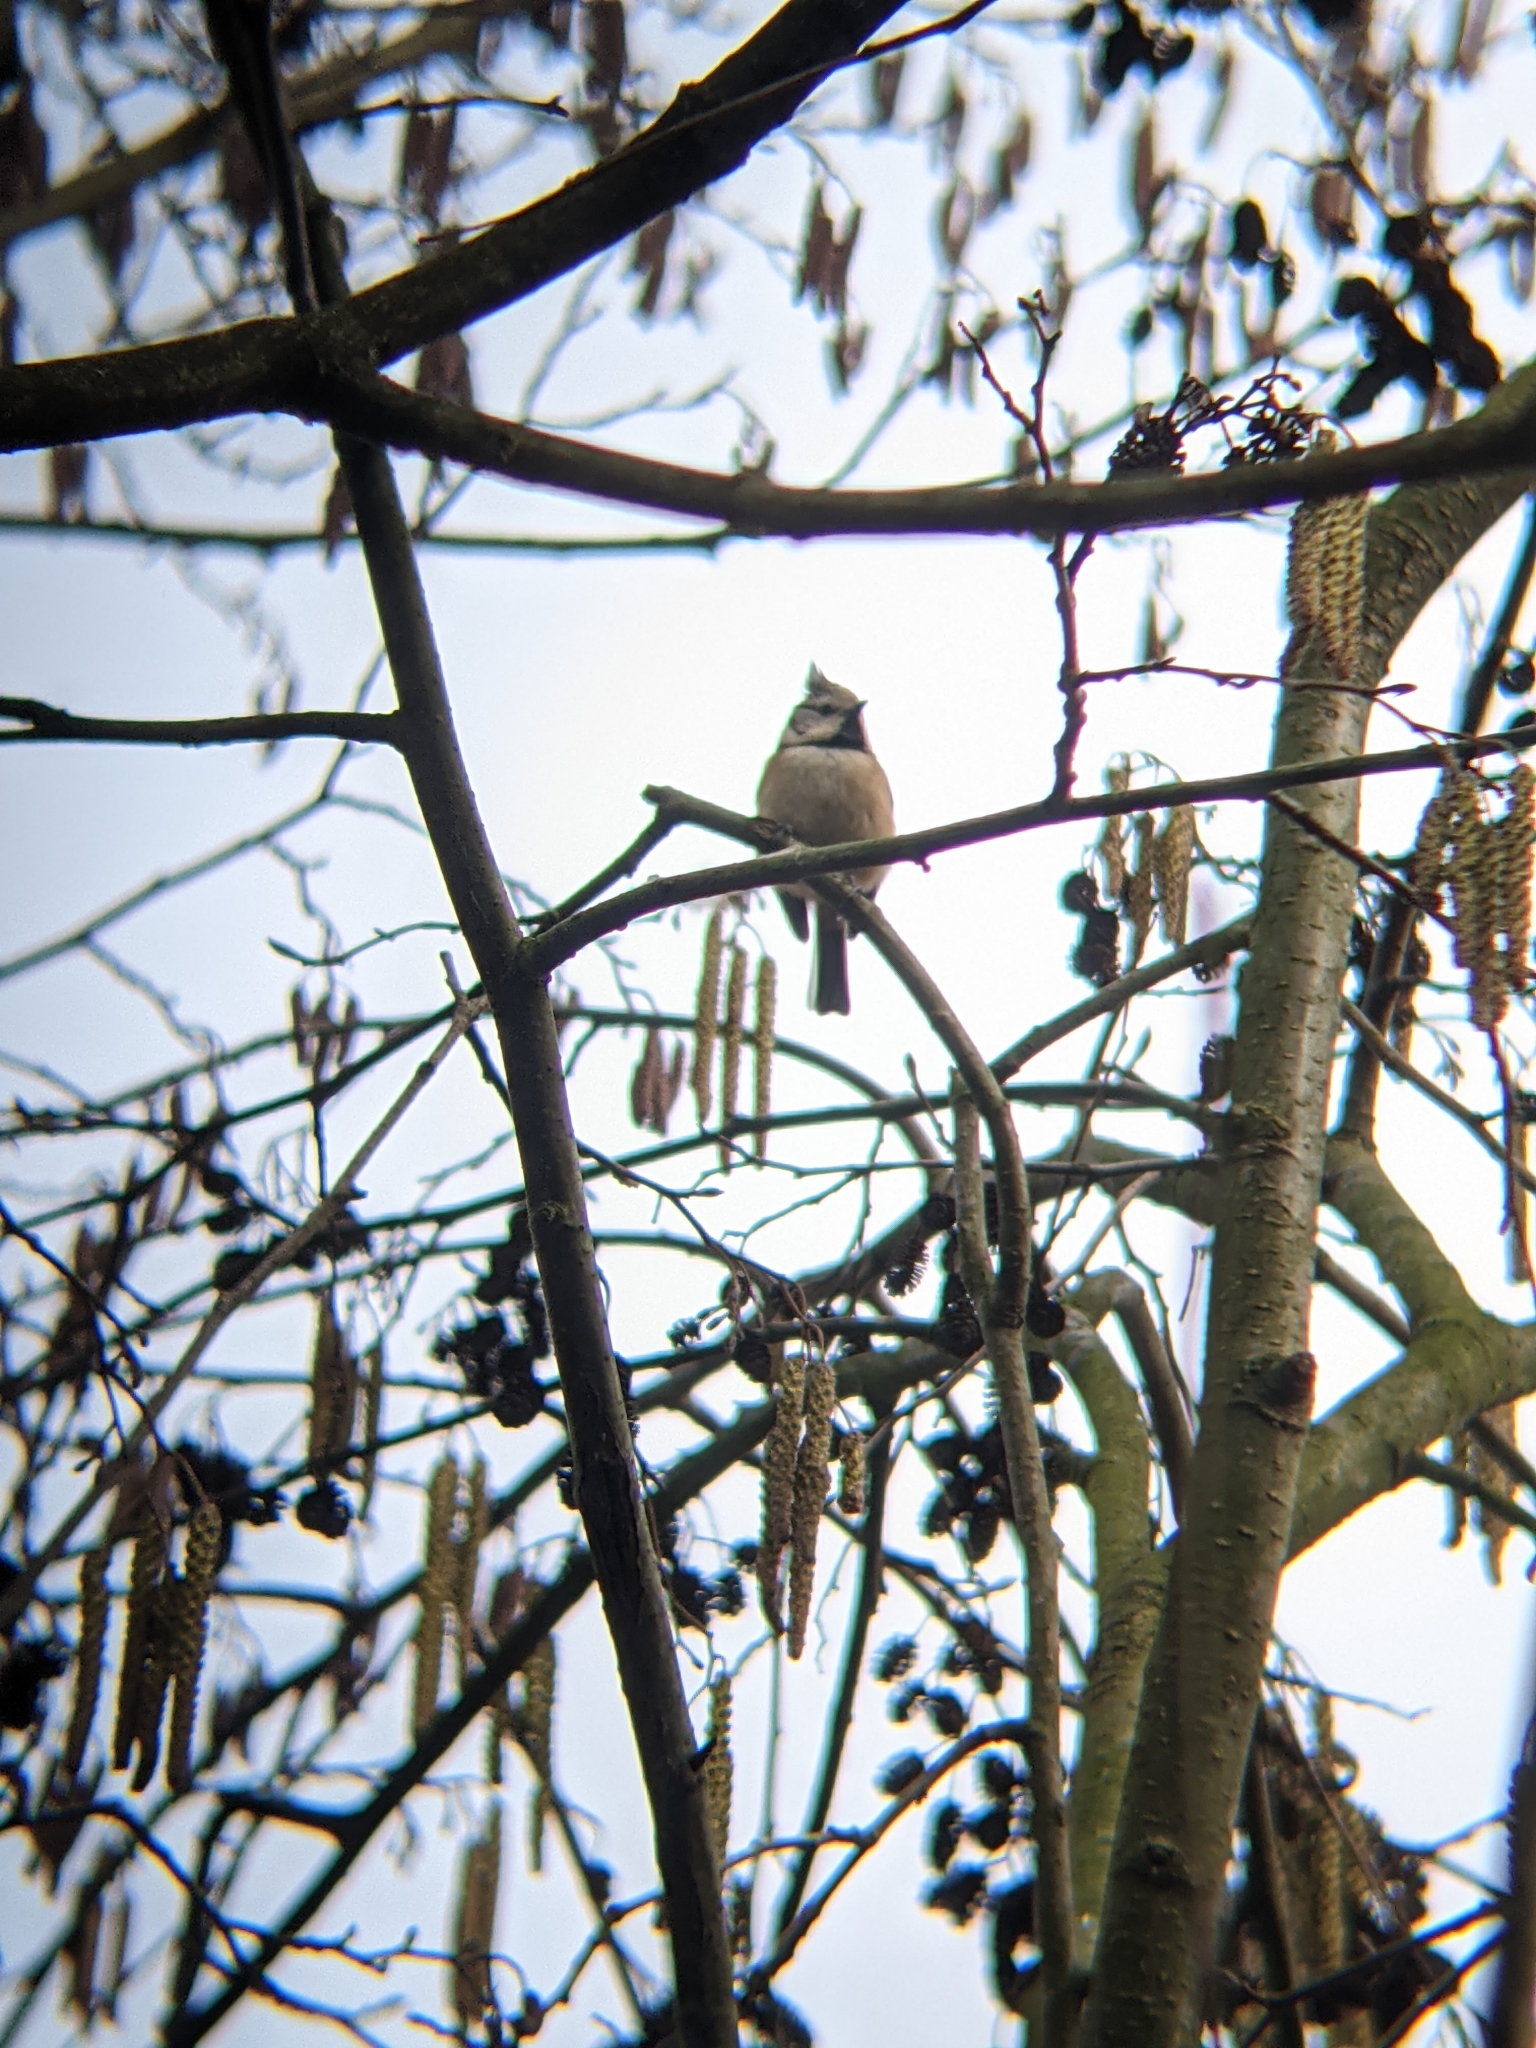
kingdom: Animalia
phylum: Chordata
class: Aves
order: Passeriformes
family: Paridae
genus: Lophophanes
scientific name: Lophophanes cristatus
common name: European crested tit
